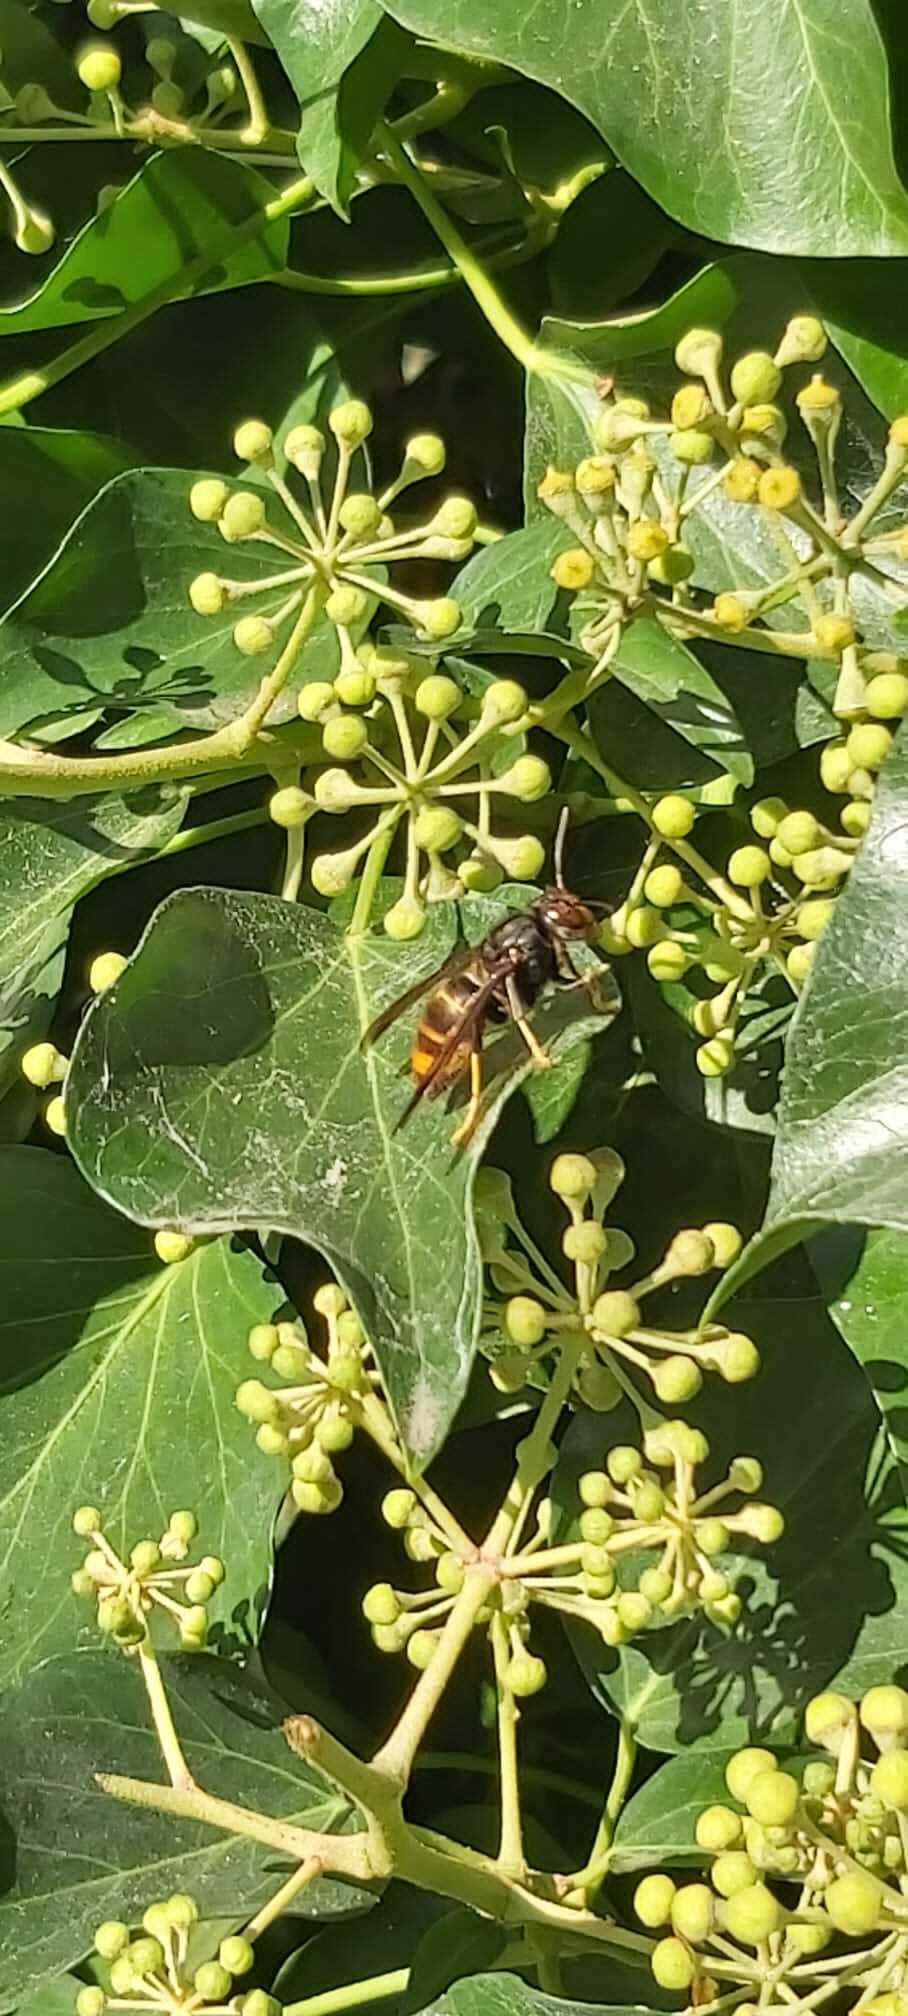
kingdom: Animalia
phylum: Arthropoda
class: Insecta
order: Hymenoptera
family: Vespidae
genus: Vespa
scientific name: Vespa velutina
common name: Asian hornet
